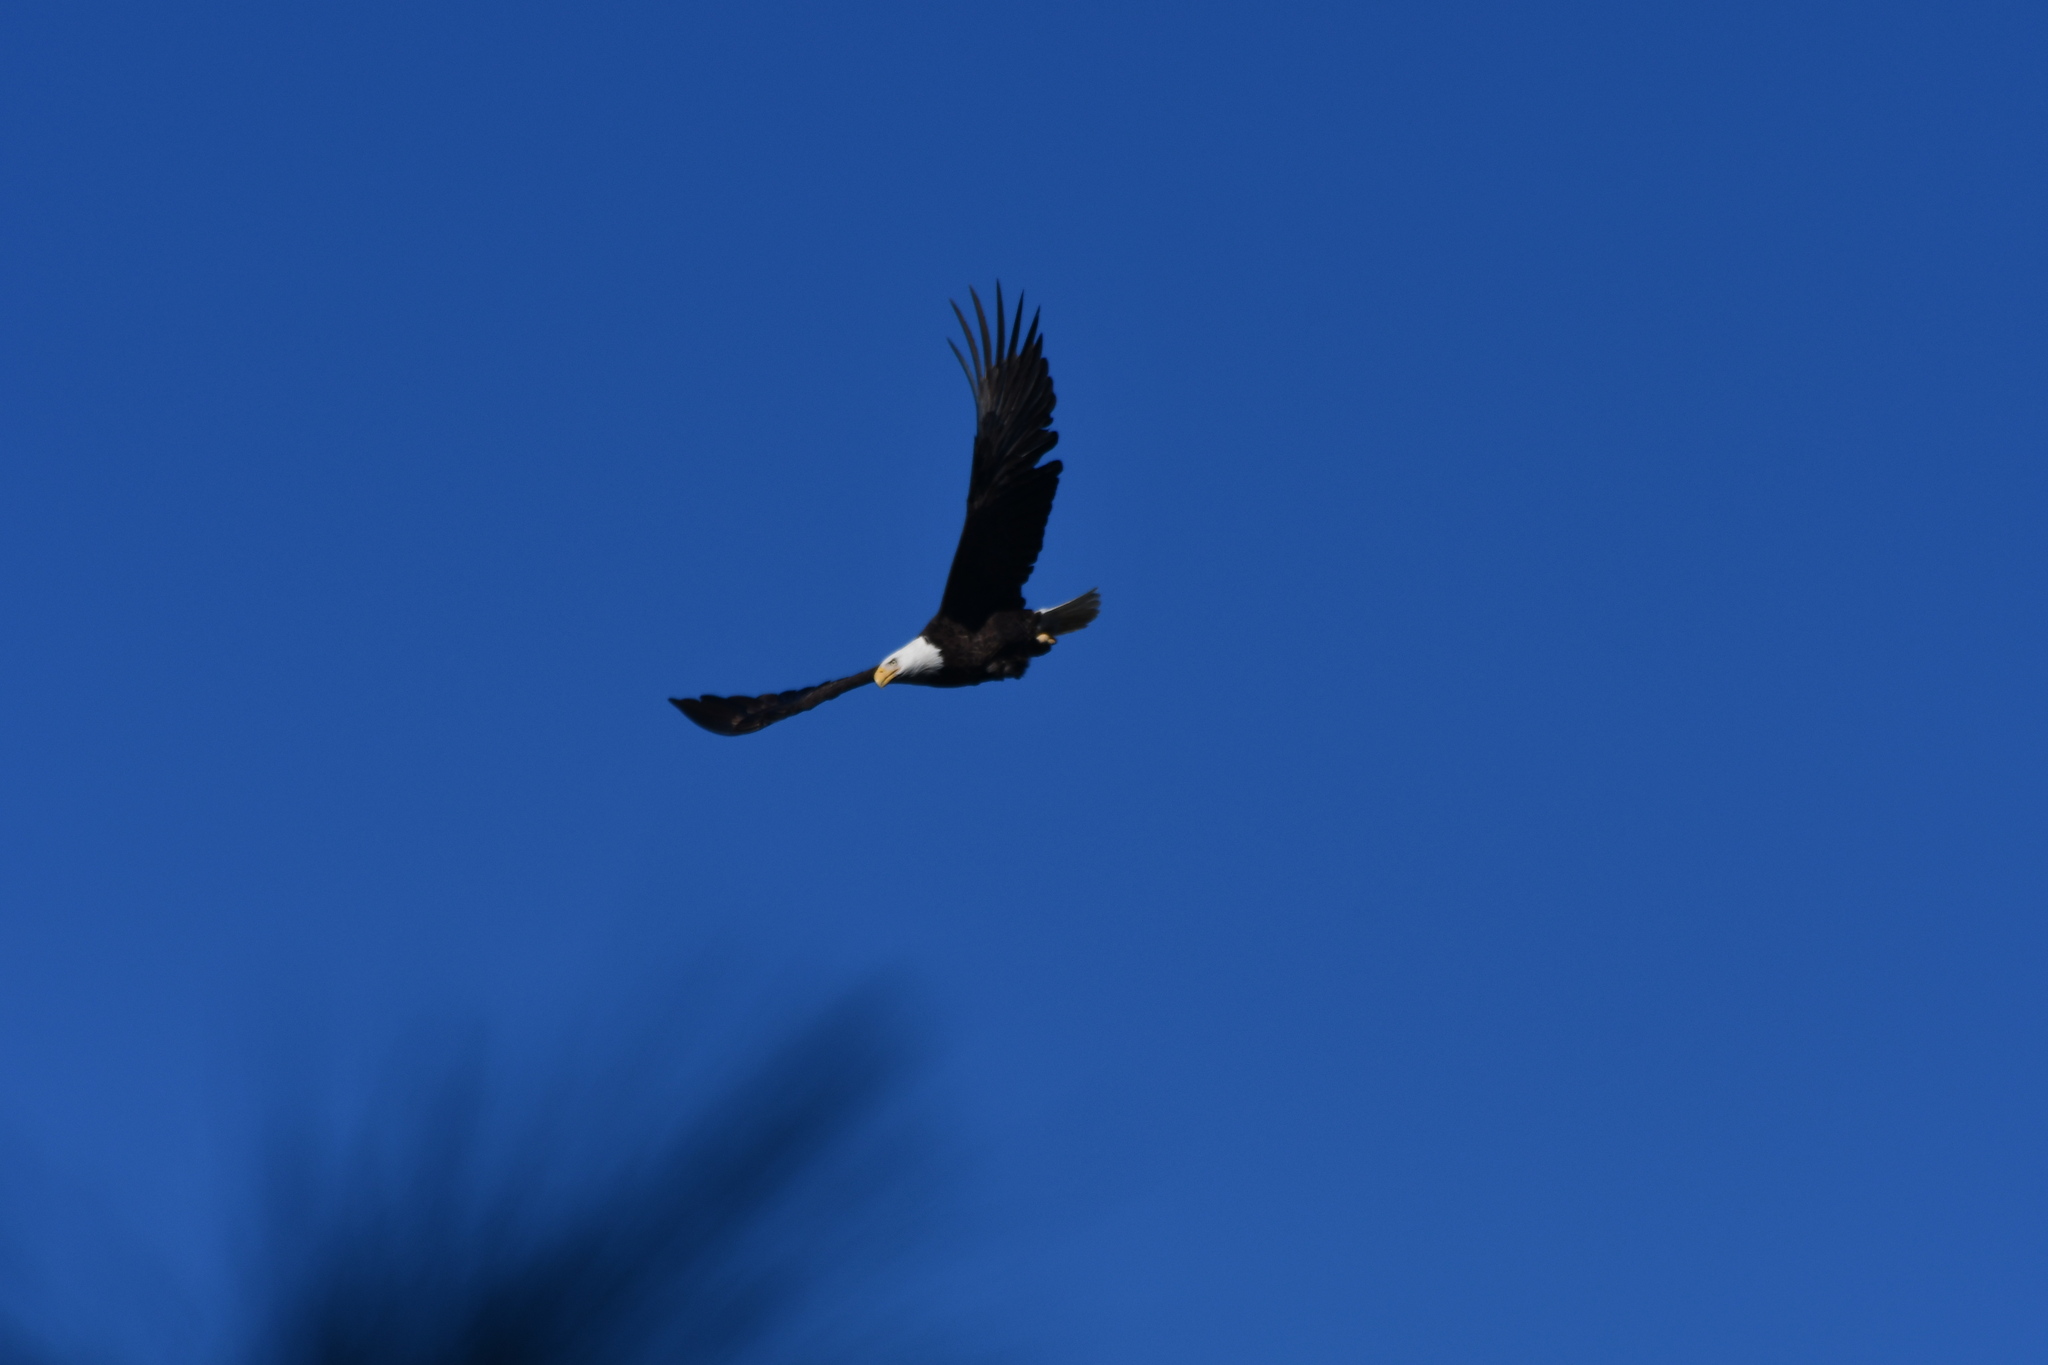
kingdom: Animalia
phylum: Chordata
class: Aves
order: Accipitriformes
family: Accipitridae
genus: Haliaeetus
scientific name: Haliaeetus leucocephalus
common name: Bald eagle
